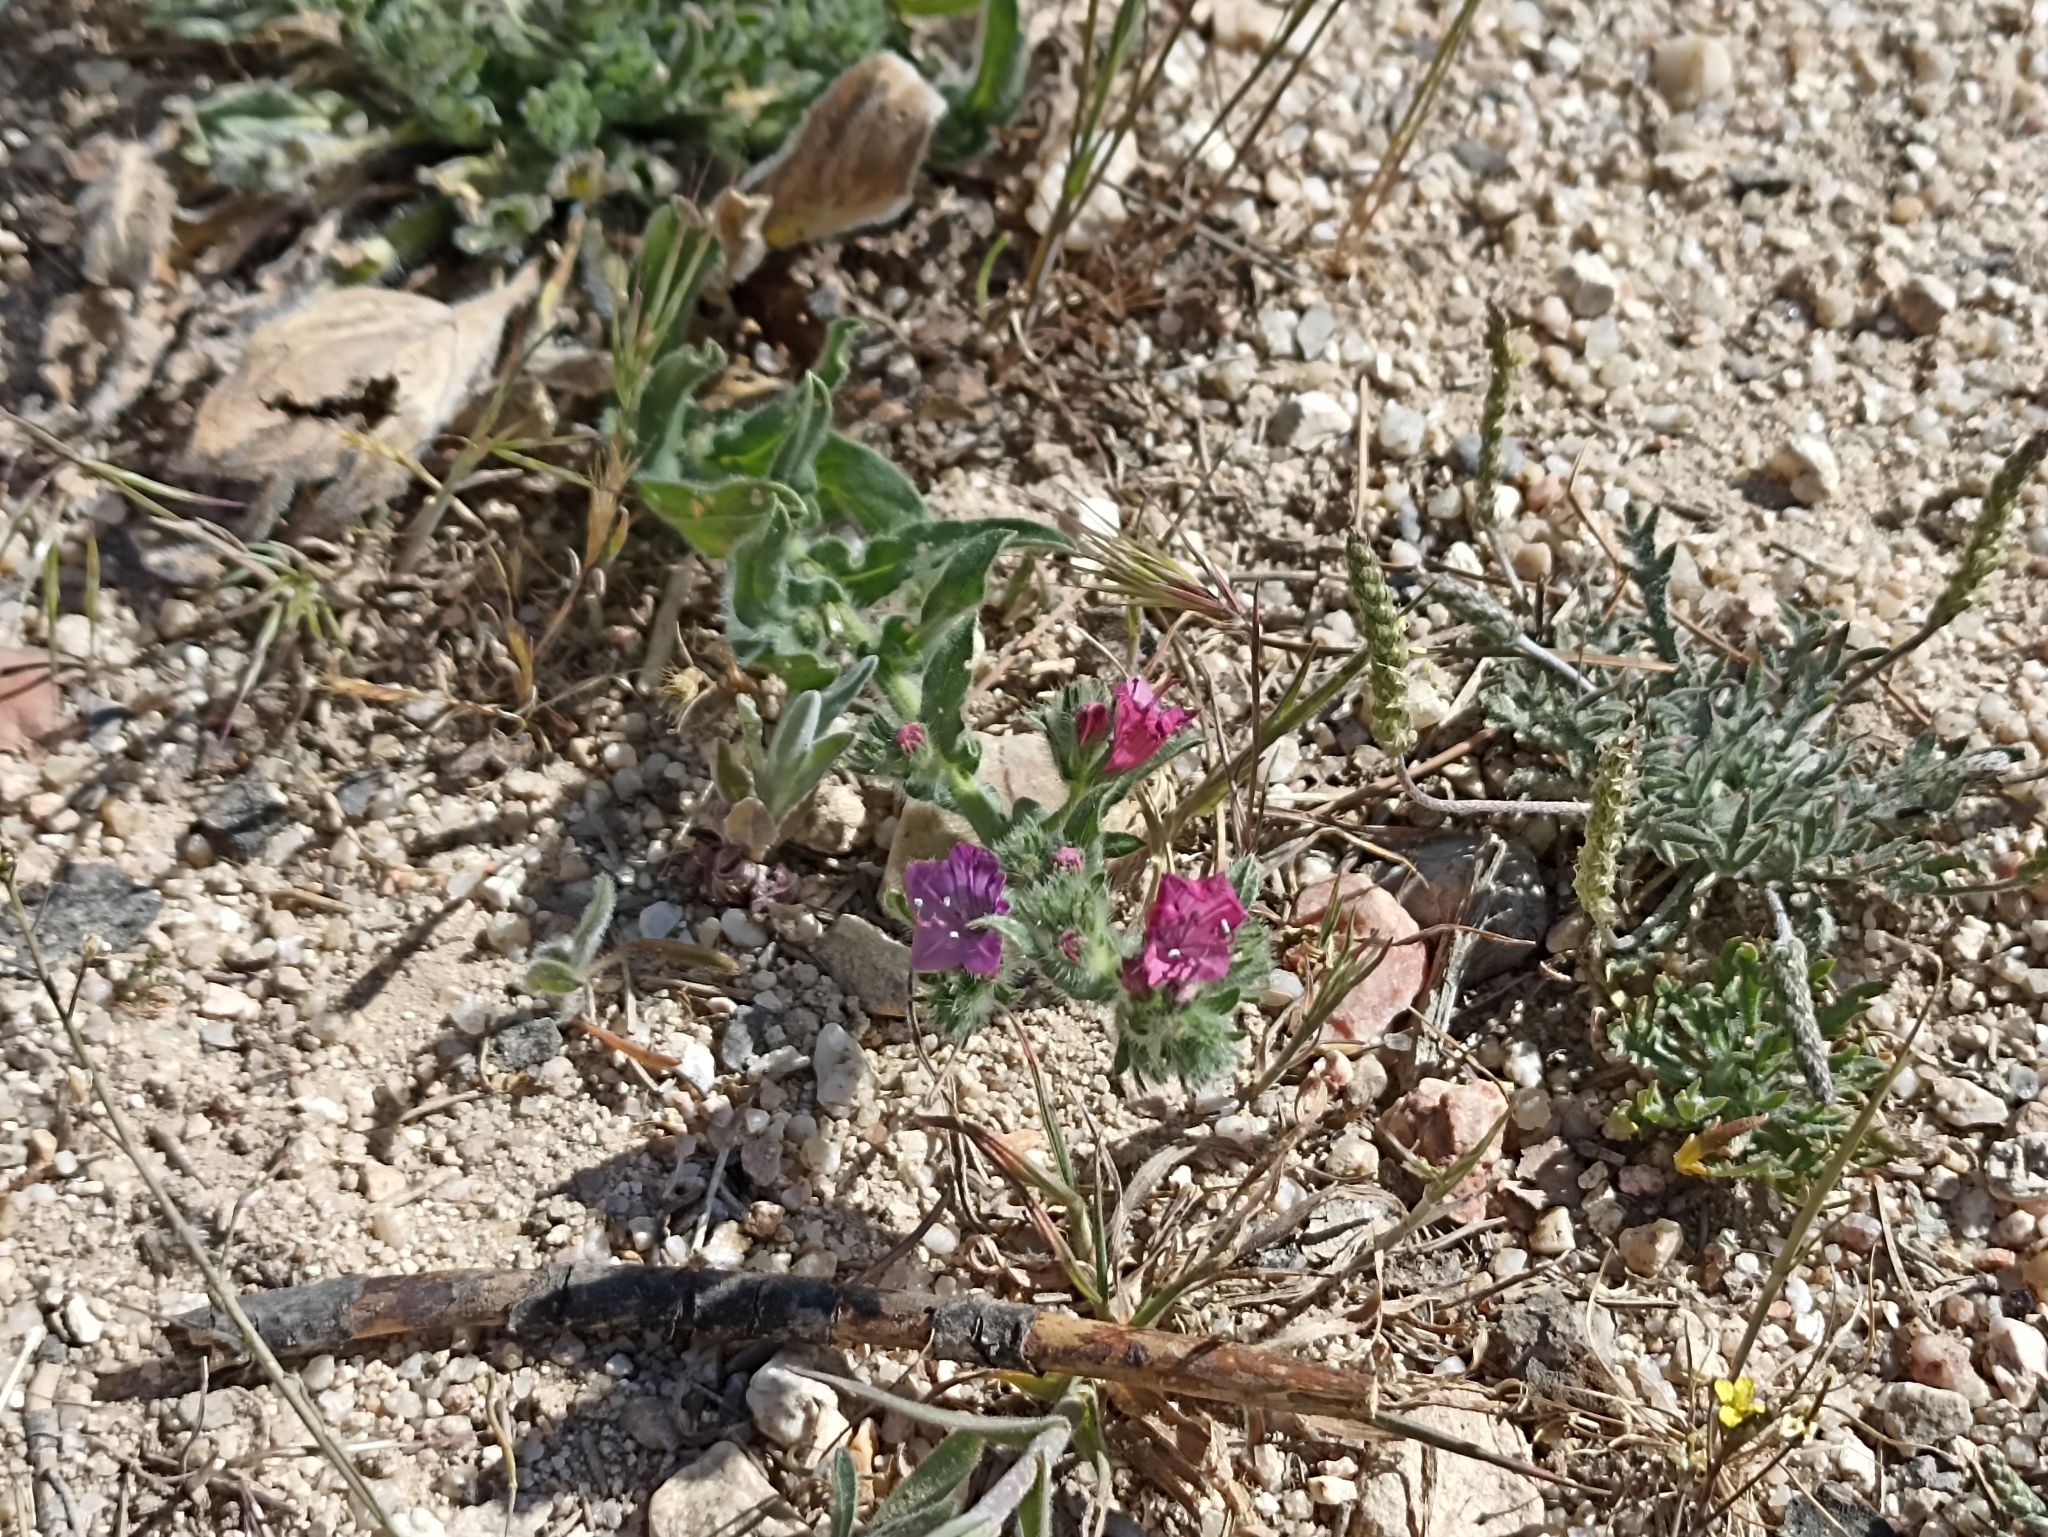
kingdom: Plantae
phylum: Tracheophyta
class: Magnoliopsida
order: Boraginales
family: Boraginaceae
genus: Echium
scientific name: Echium plantagineum
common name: Purple viper's-bugloss
